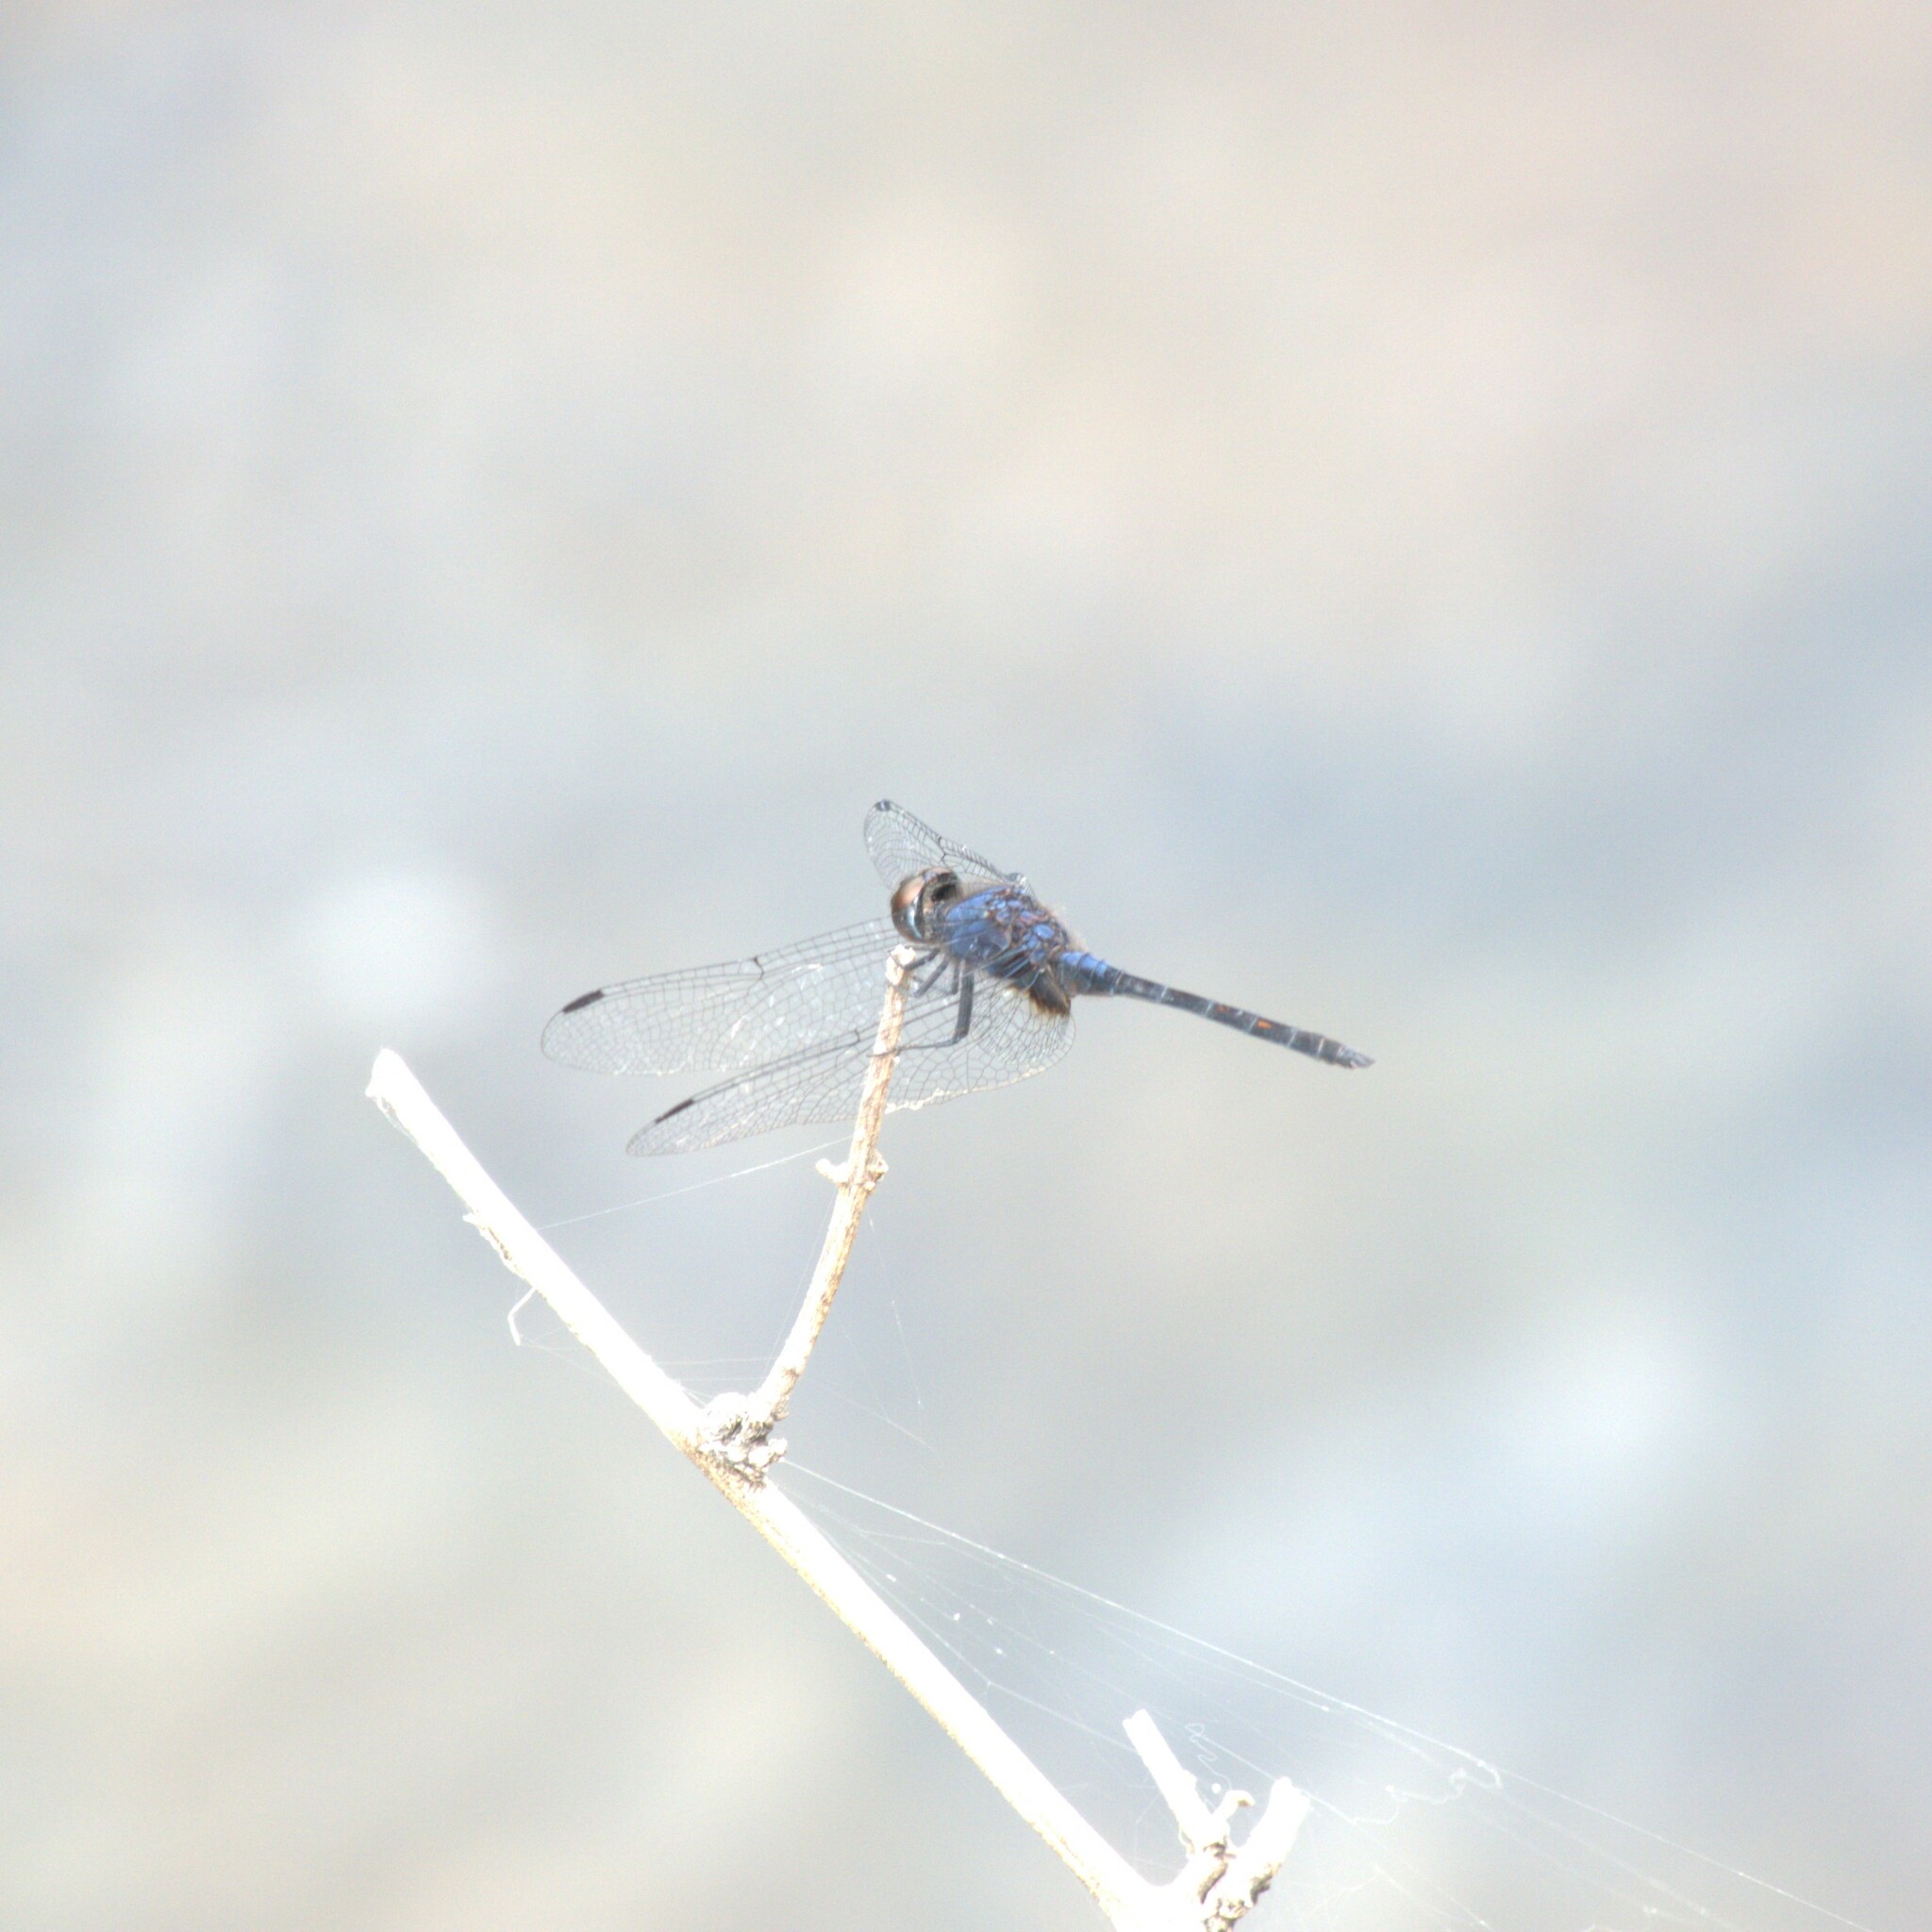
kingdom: Animalia
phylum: Arthropoda
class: Insecta
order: Odonata
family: Libellulidae
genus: Trithemis
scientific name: Trithemis festiva
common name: Indigo dropwing
